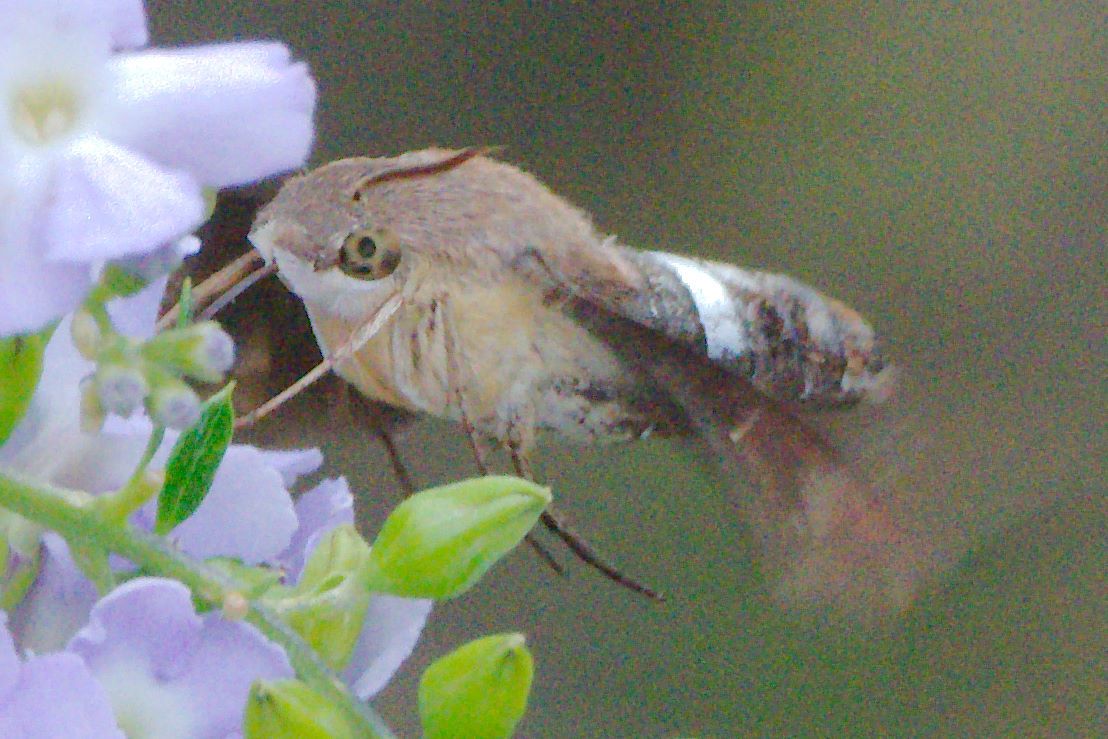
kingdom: Animalia
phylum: Arthropoda
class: Insecta
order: Lepidoptera
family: Sphingidae
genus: Aellopos
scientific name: Aellopos titan
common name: Titan sphinx
